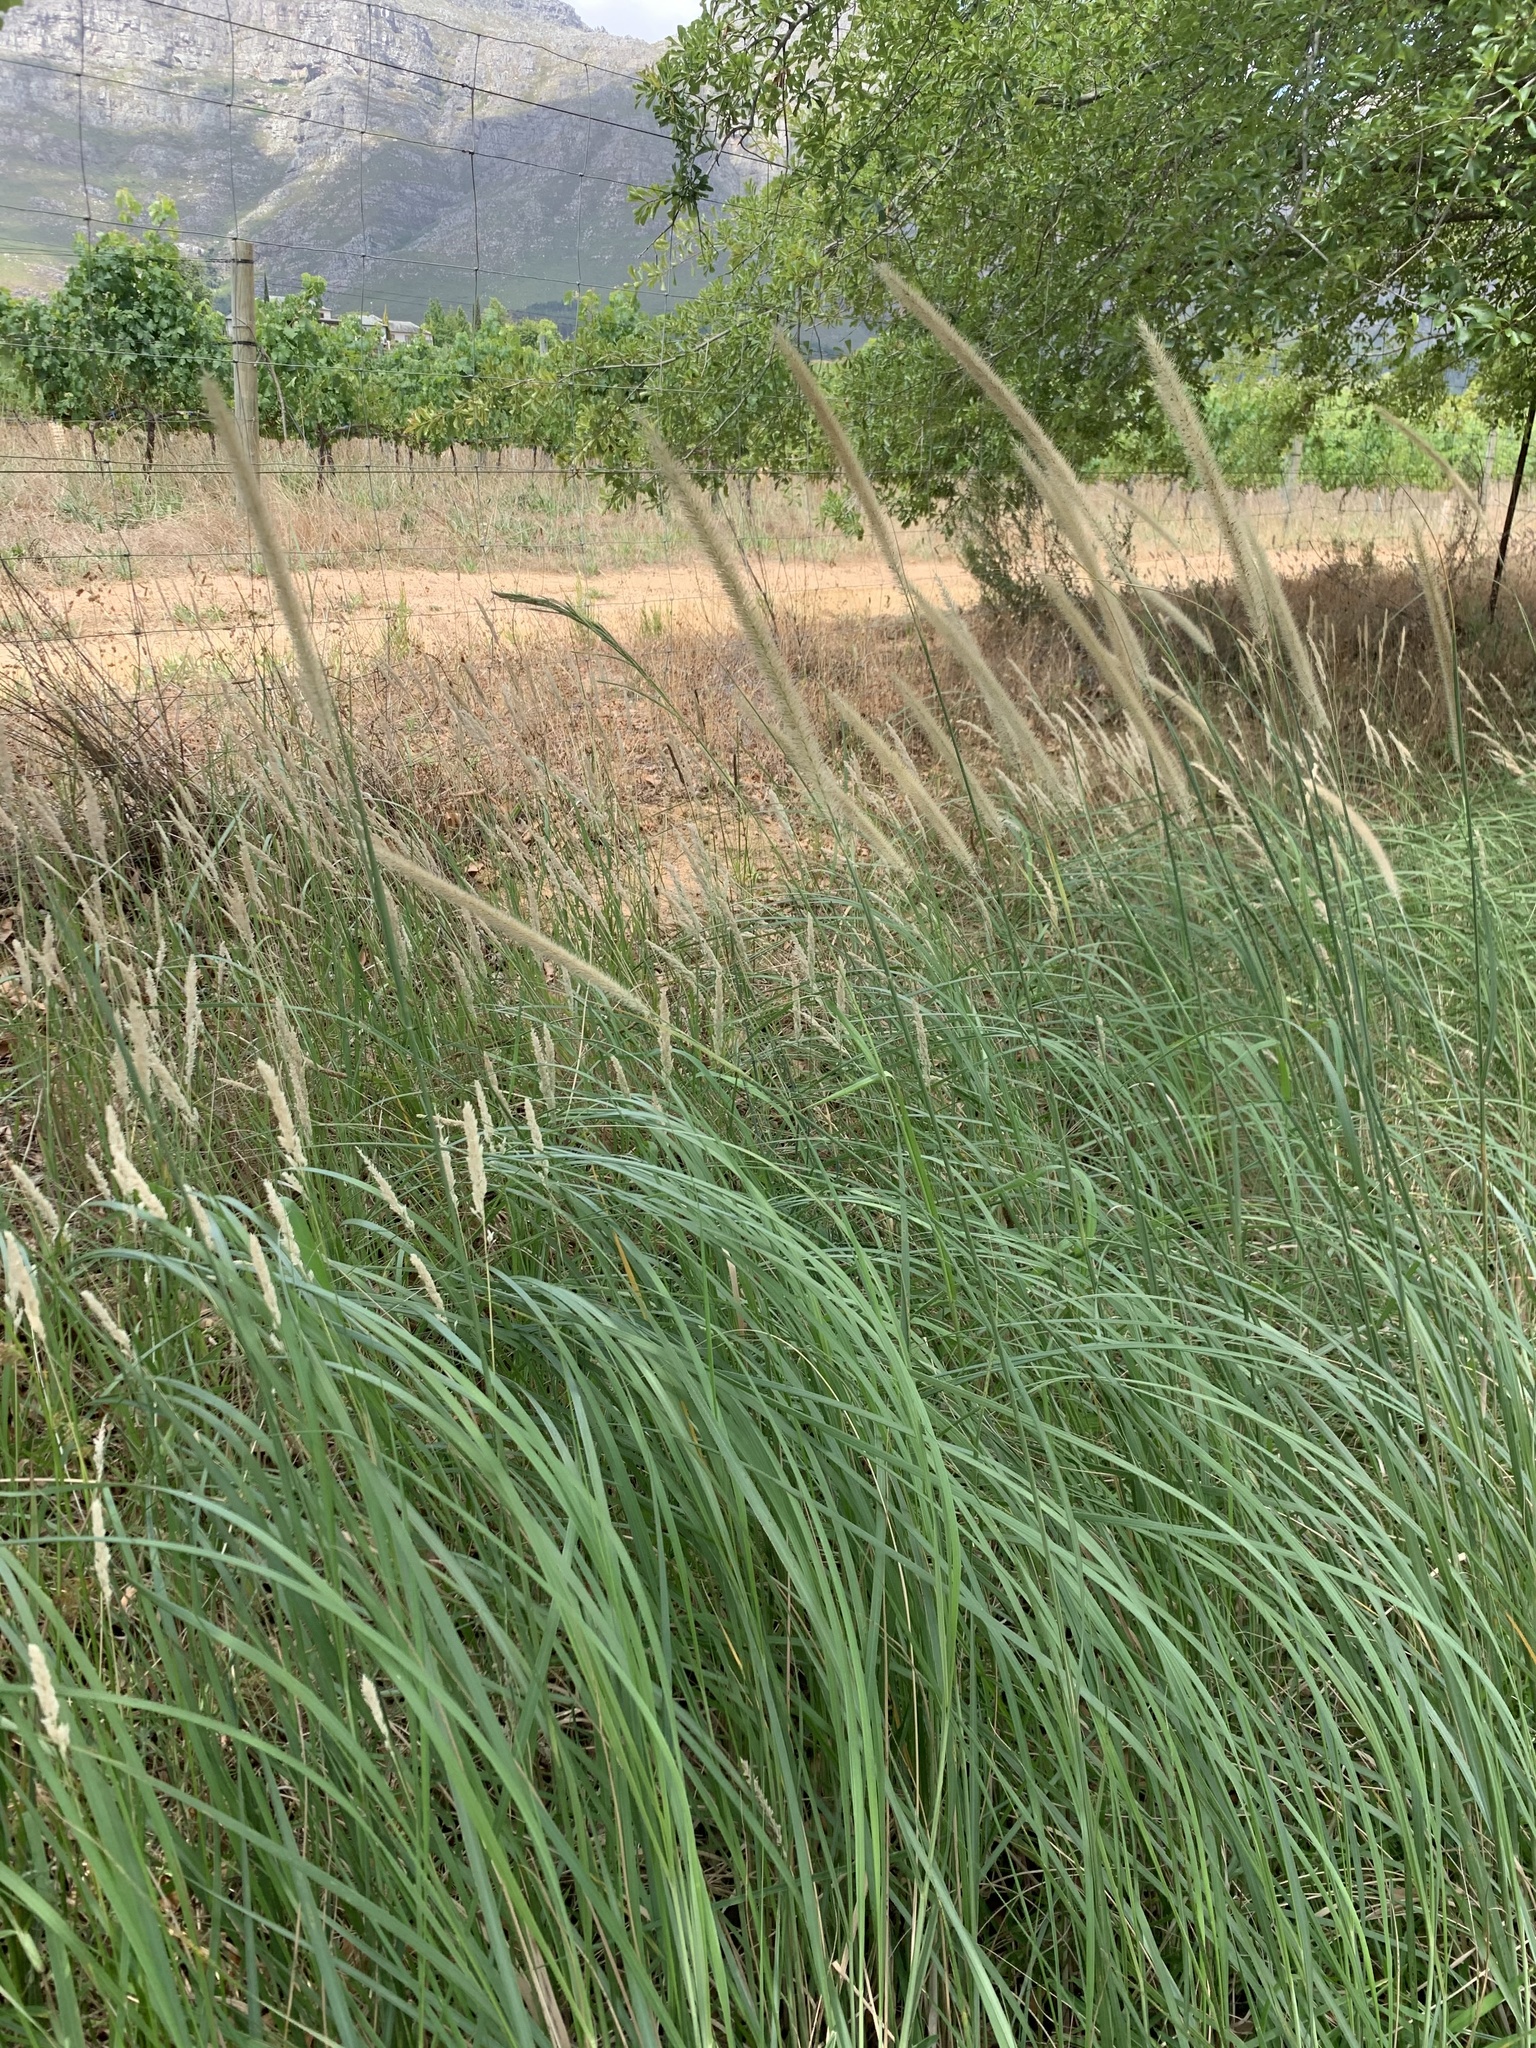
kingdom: Plantae
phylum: Tracheophyta
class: Liliopsida
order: Poales
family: Poaceae
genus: Cenchrus
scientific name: Cenchrus caudatus
